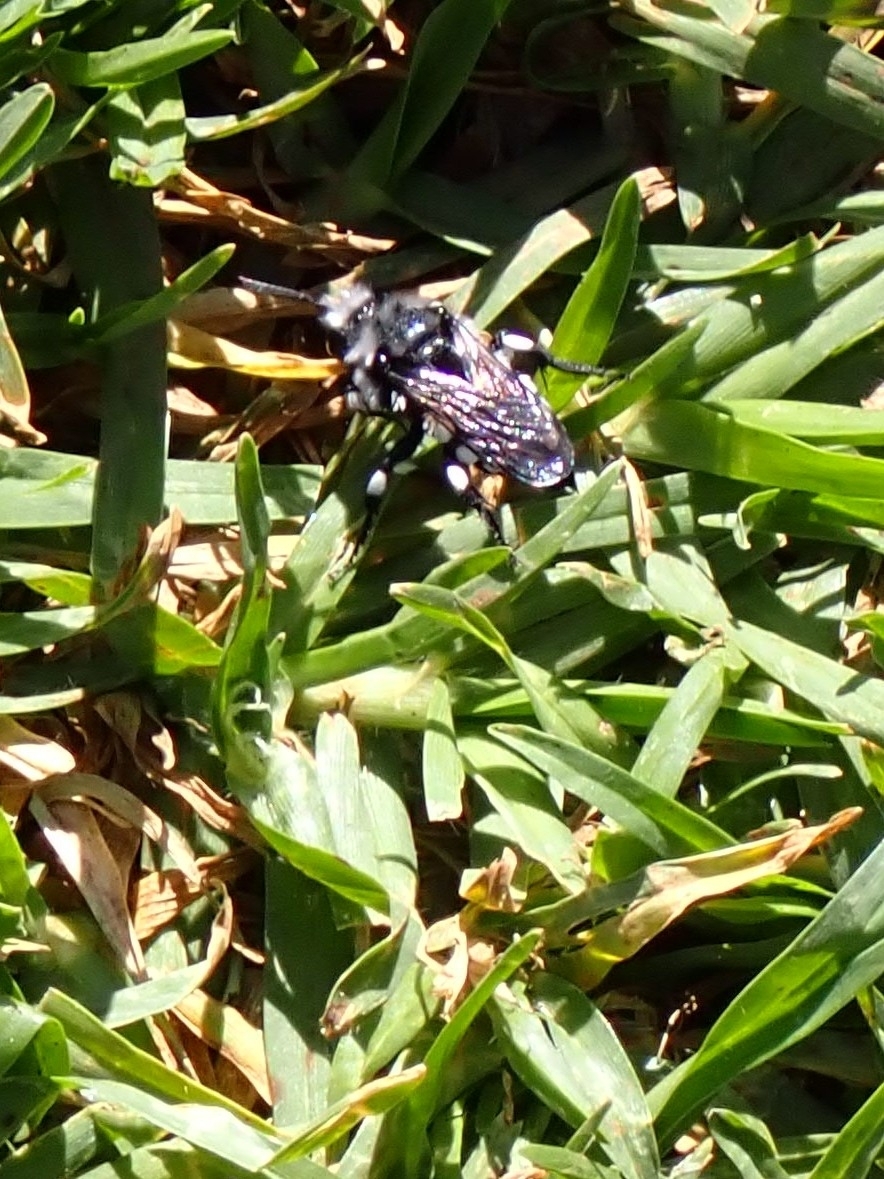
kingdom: Animalia
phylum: Arthropoda
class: Insecta
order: Hymenoptera
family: Apidae
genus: Melecta
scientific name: Melecta curvispina
